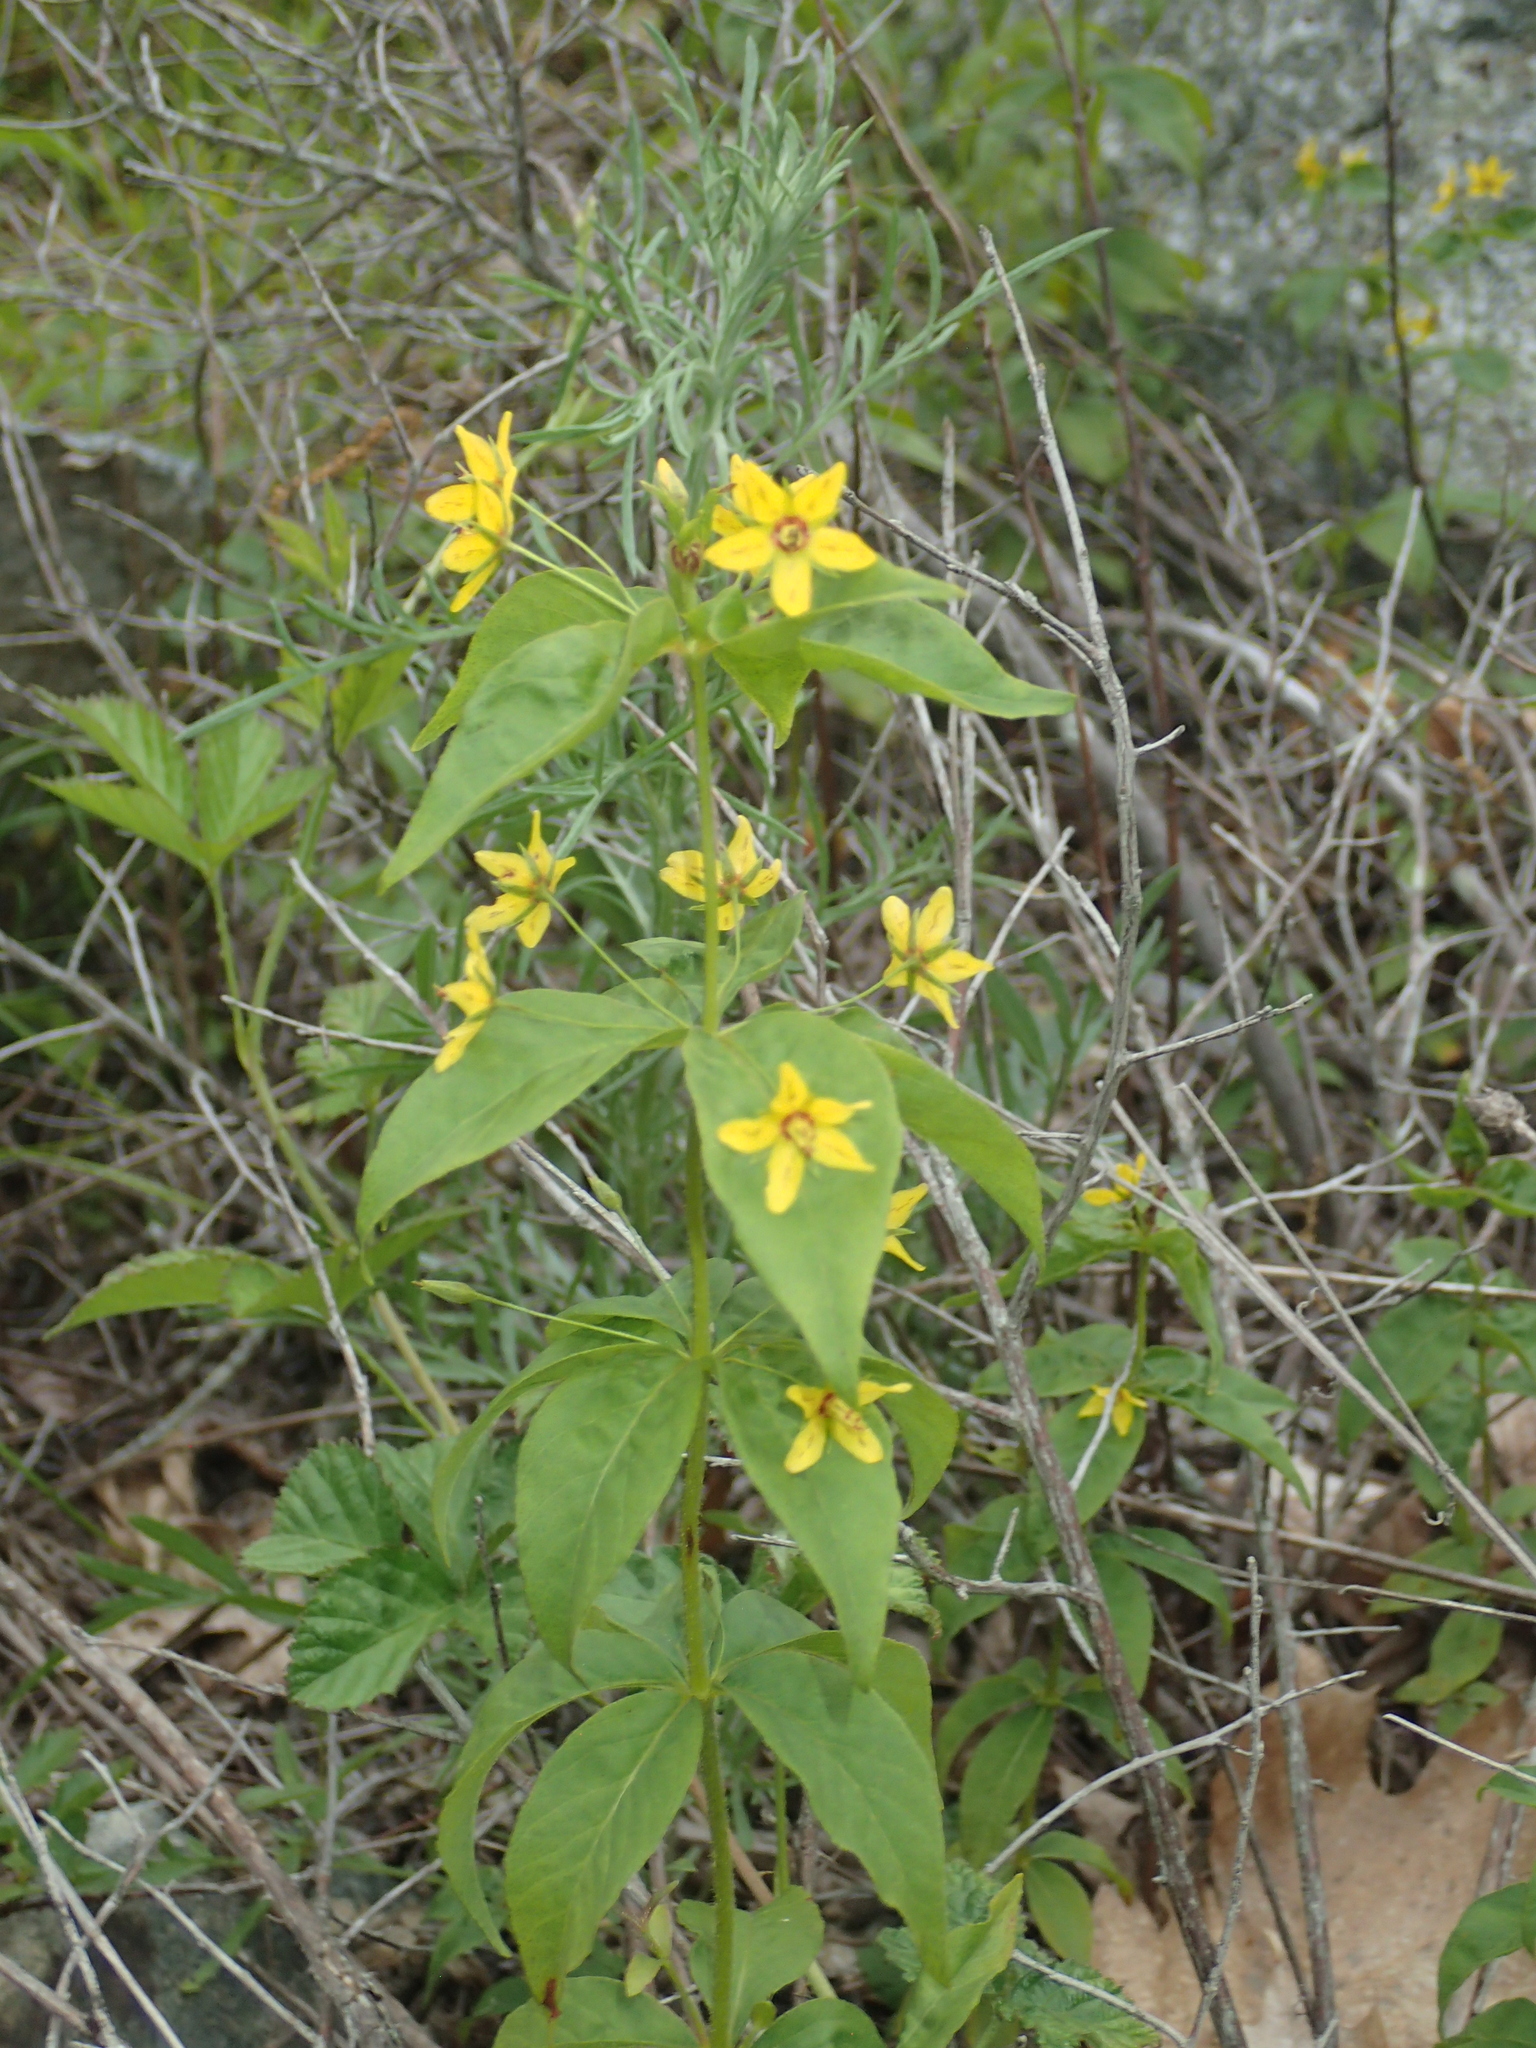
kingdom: Plantae
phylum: Tracheophyta
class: Magnoliopsida
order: Ericales
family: Primulaceae
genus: Lysimachia
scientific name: Lysimachia quadrifolia
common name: Whorled loosestrife
